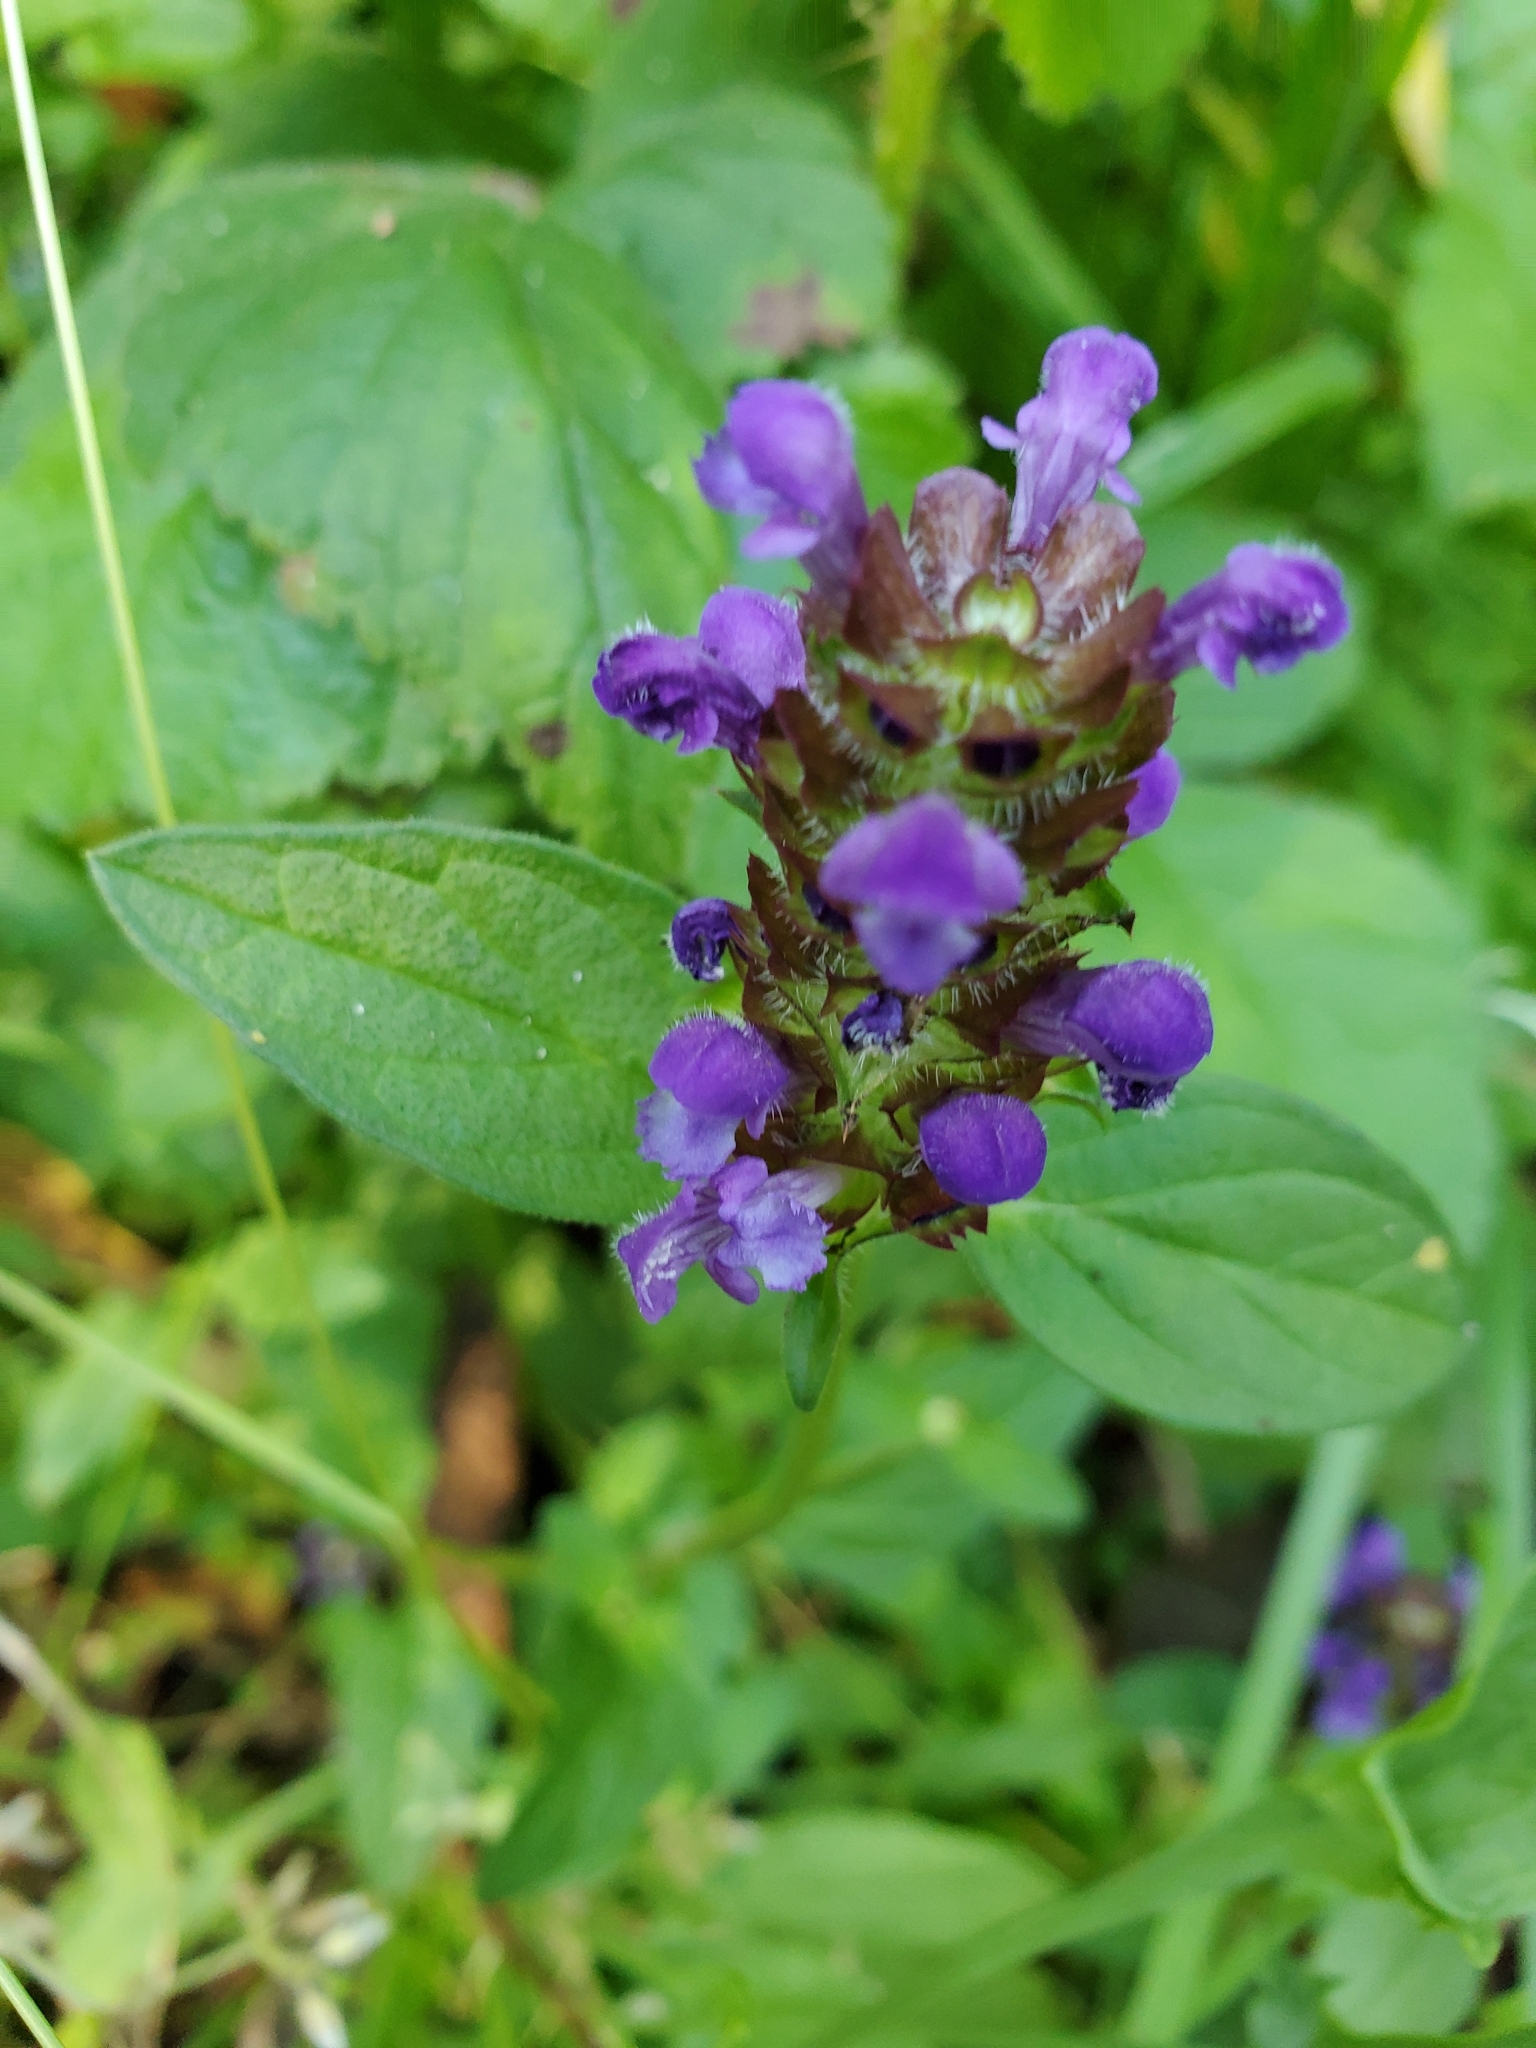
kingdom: Plantae
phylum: Tracheophyta
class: Magnoliopsida
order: Lamiales
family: Lamiaceae
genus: Prunella
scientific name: Prunella vulgaris
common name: Heal-all
